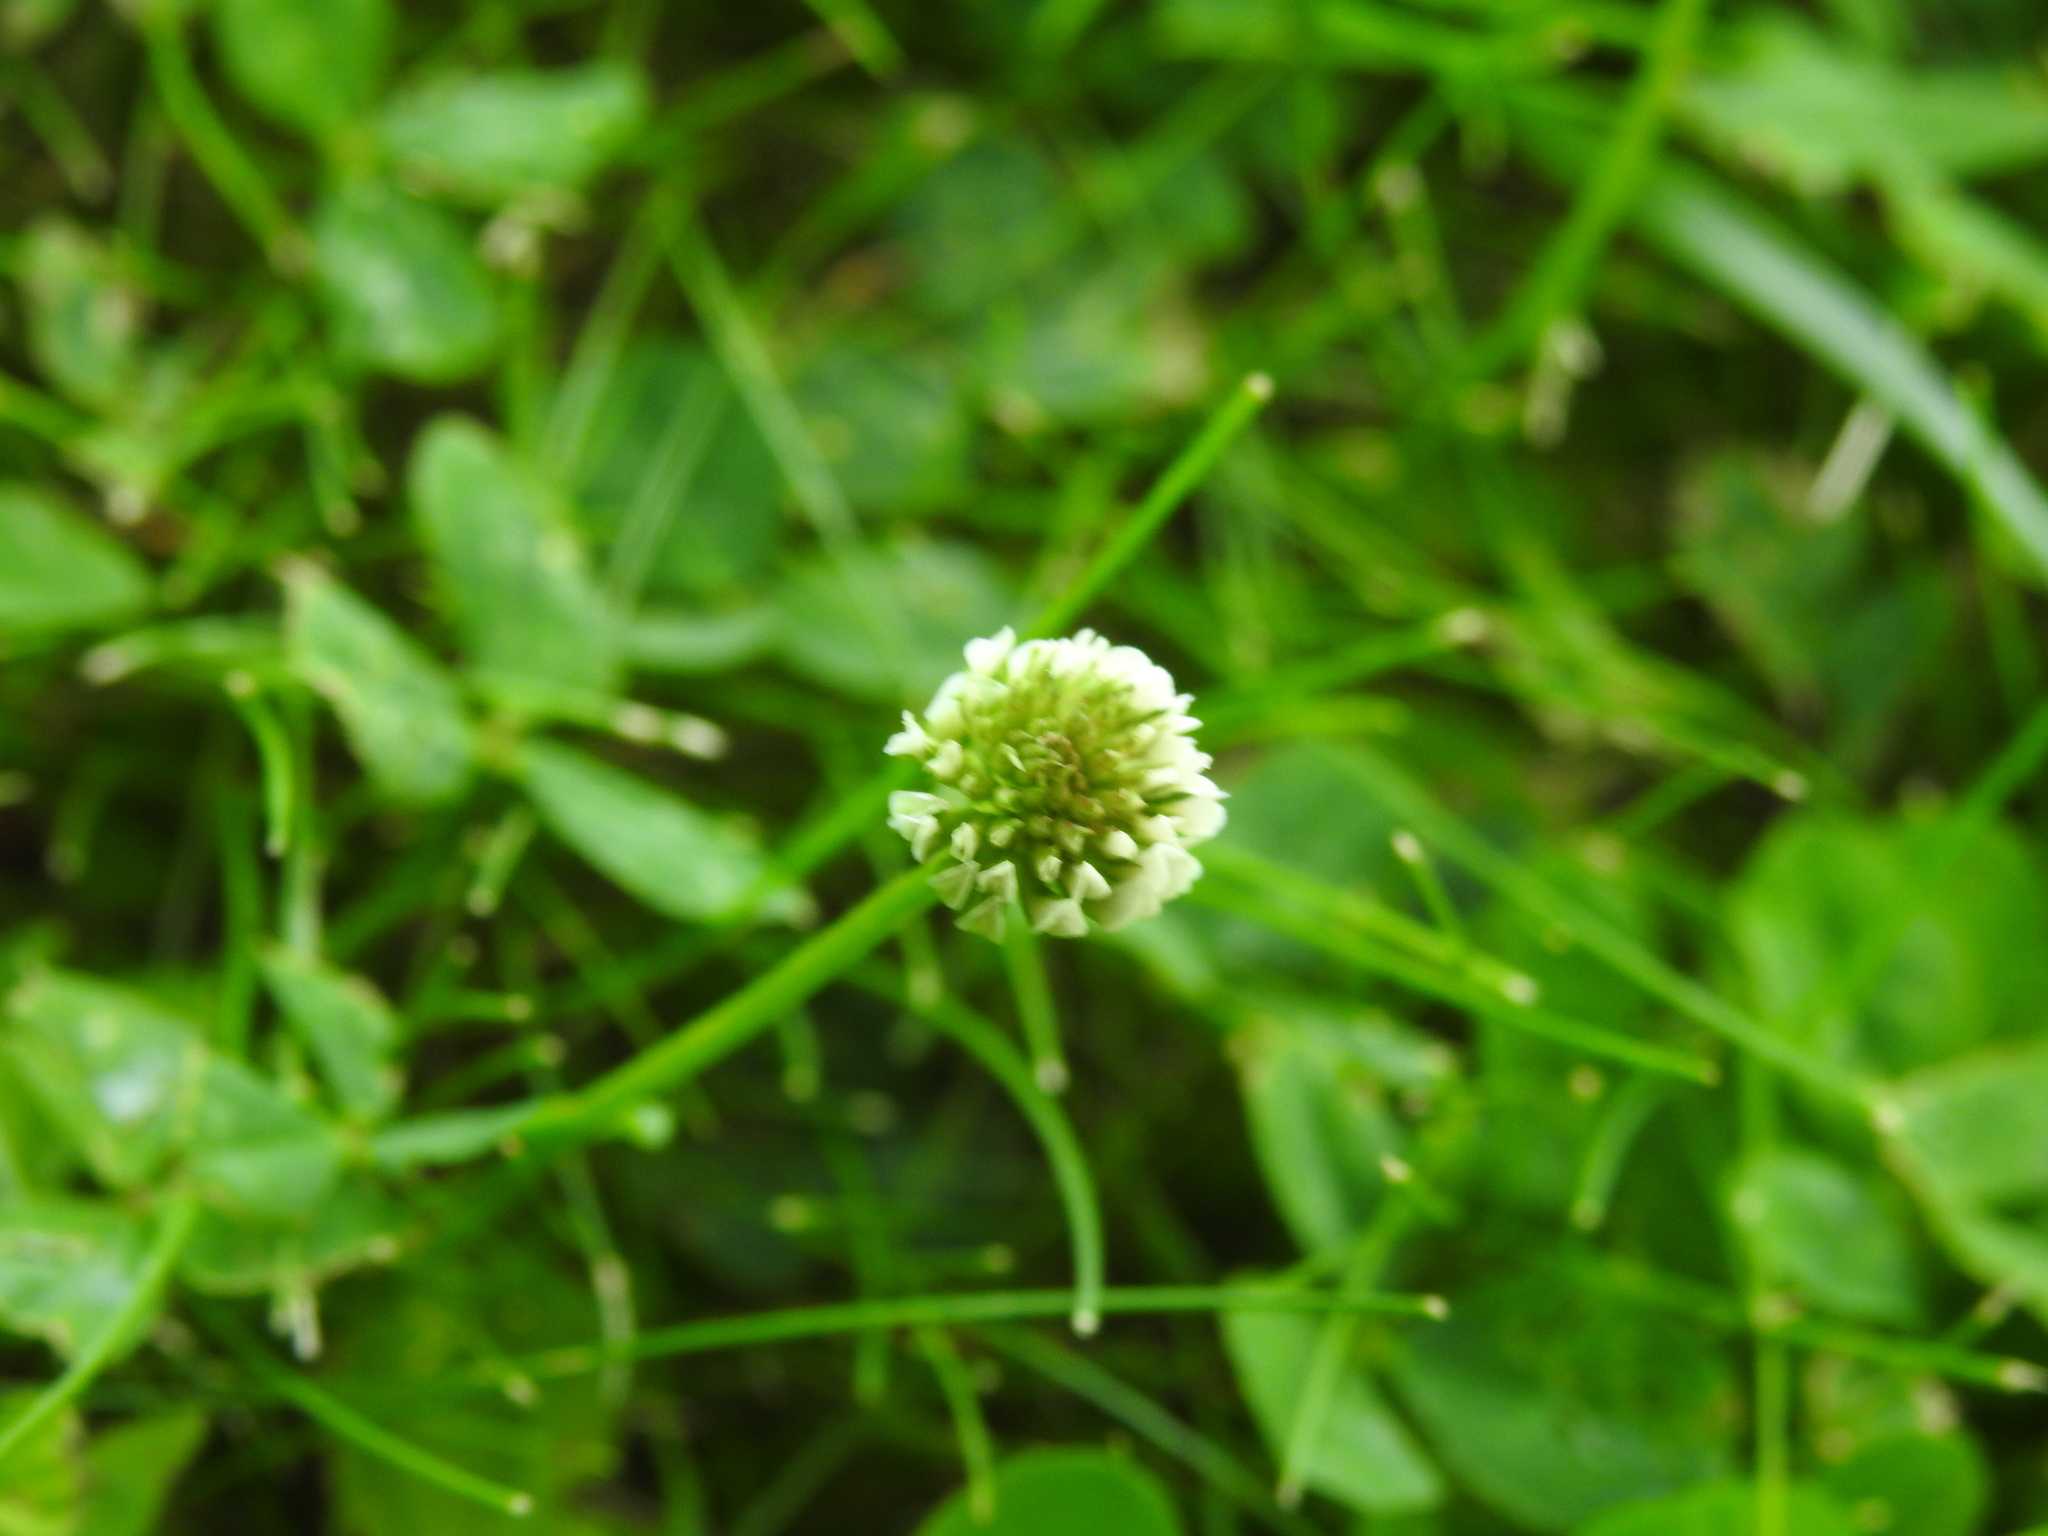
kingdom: Plantae
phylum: Tracheophyta
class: Magnoliopsida
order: Fabales
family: Fabaceae
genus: Trifolium
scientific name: Trifolium repens
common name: White clover
